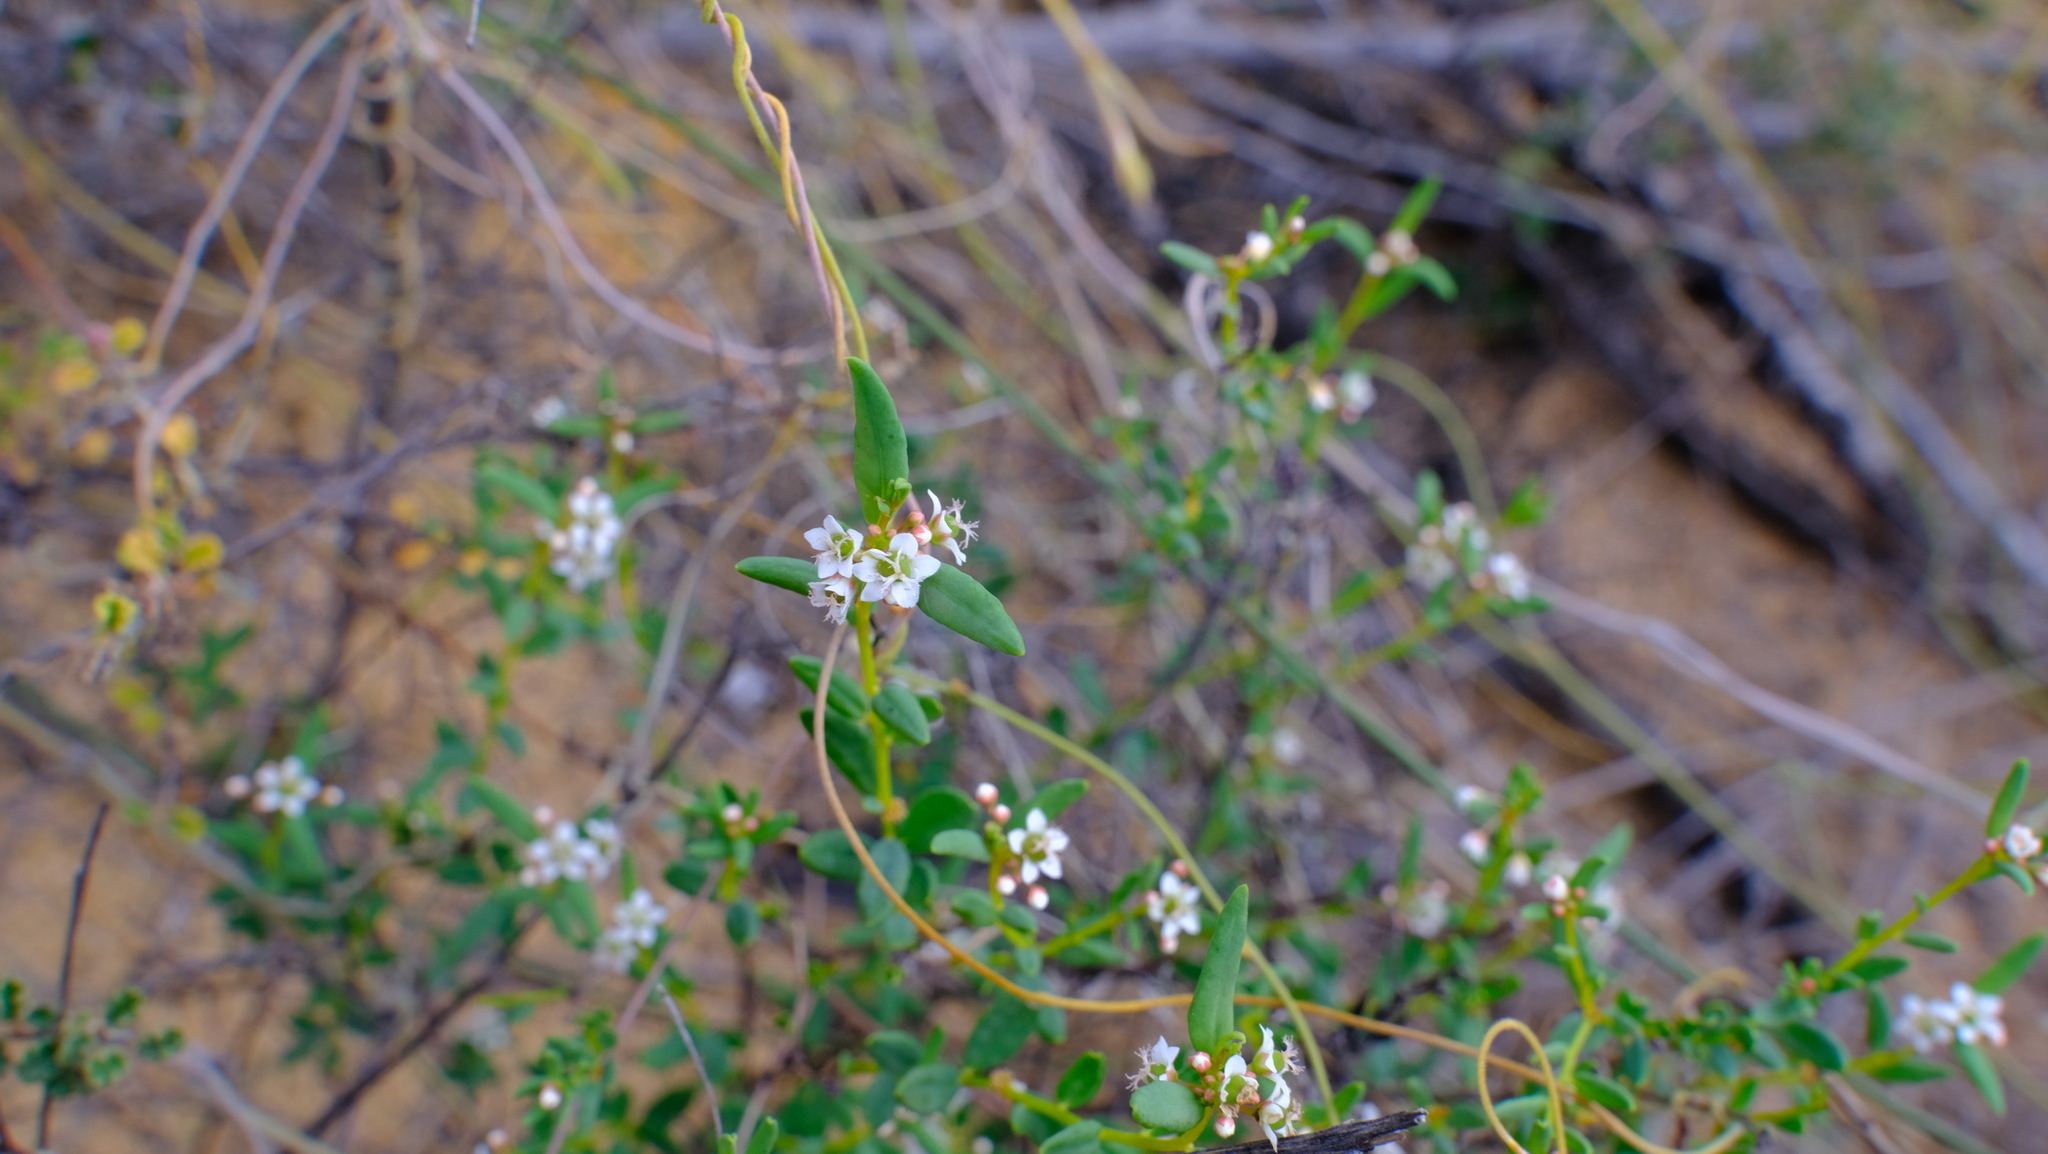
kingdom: Plantae
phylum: Tracheophyta
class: Magnoliopsida
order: Malpighiales
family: Euphorbiaceae
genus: Monotaxis
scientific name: Monotaxis bracteata
